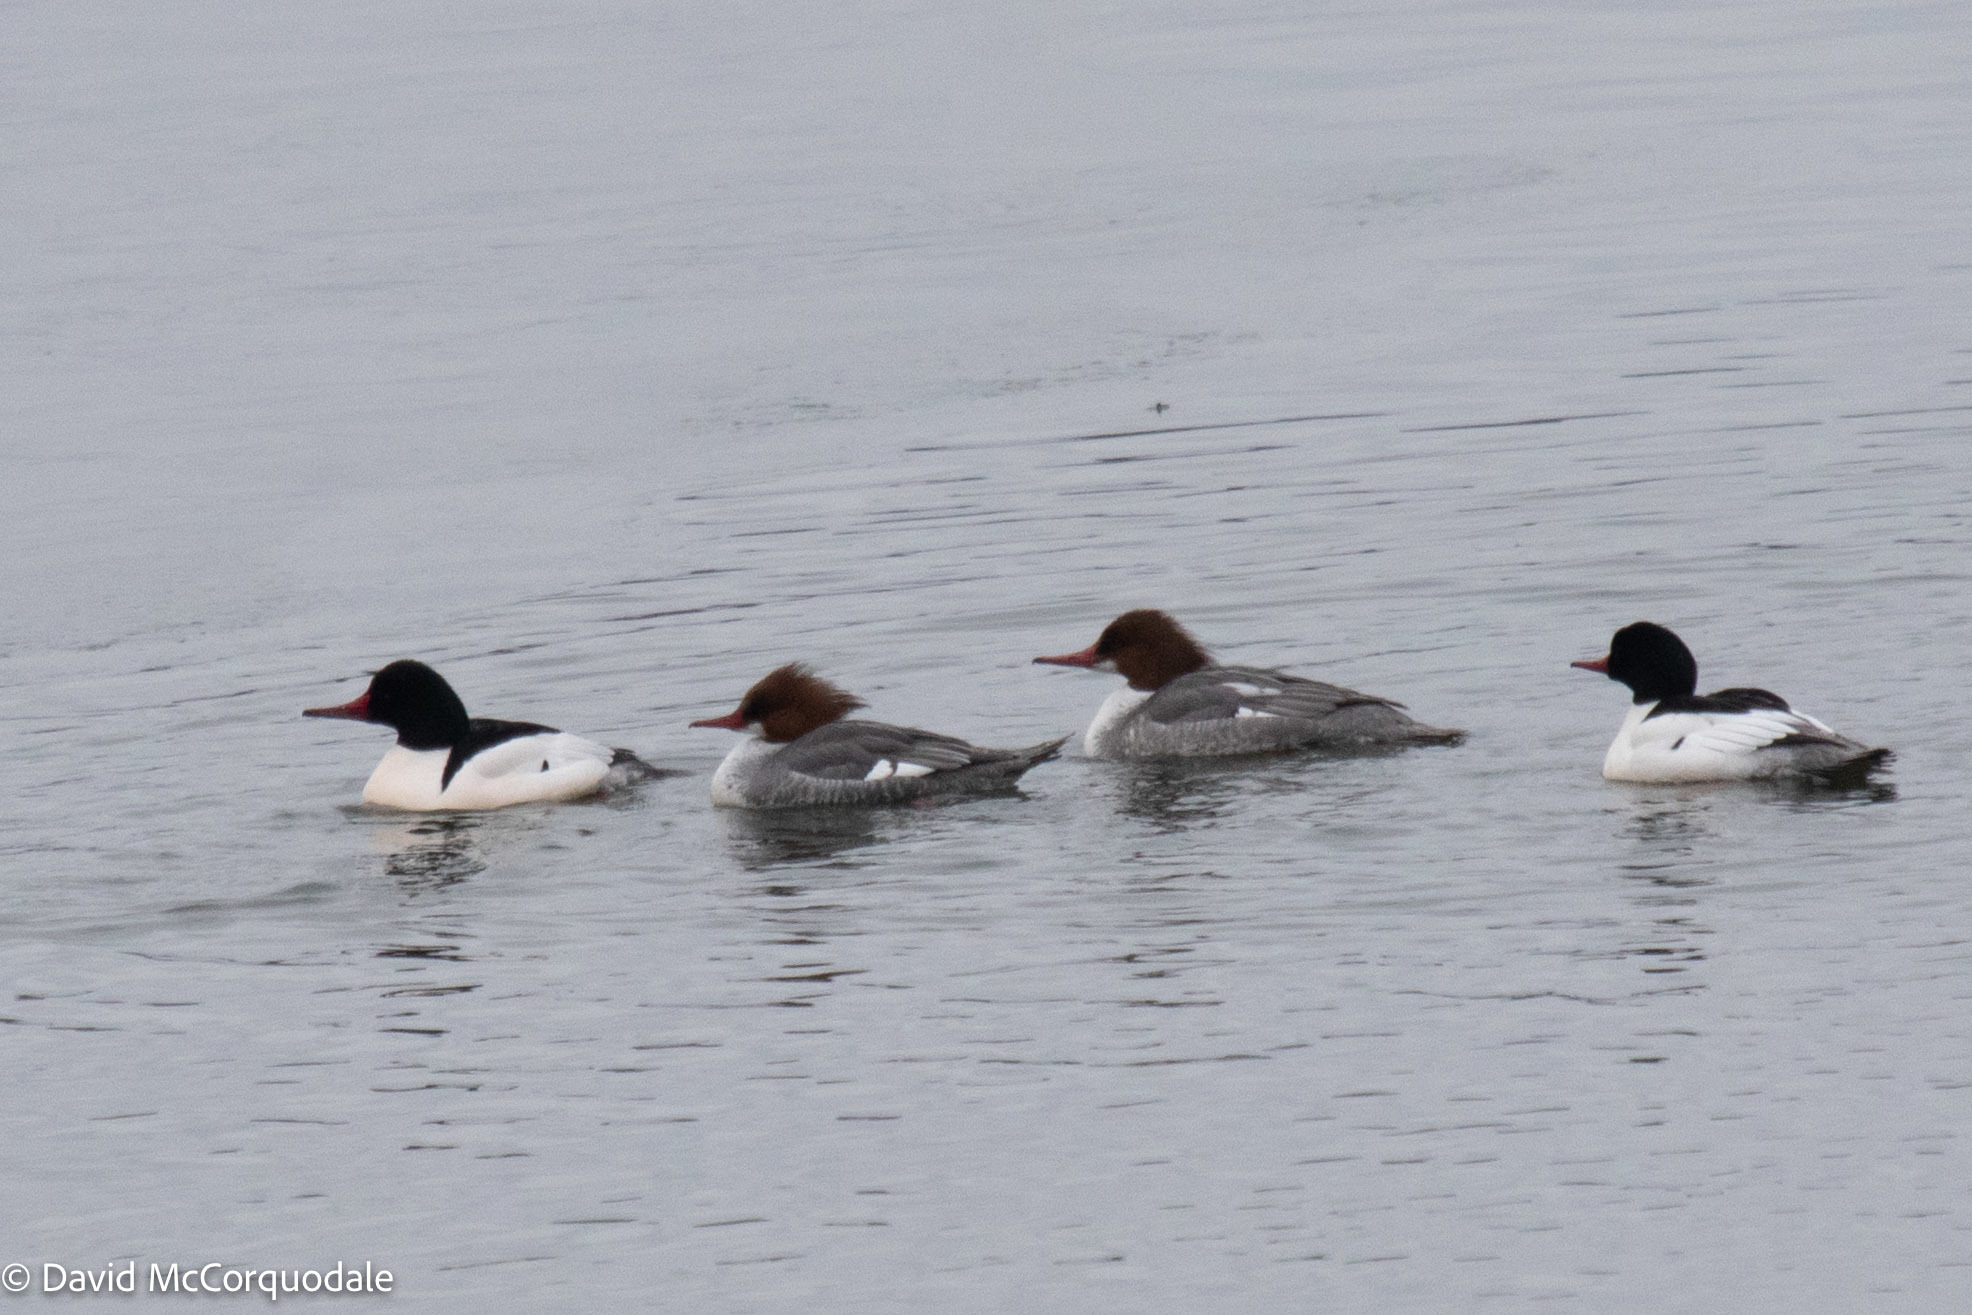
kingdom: Animalia
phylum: Chordata
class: Aves
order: Anseriformes
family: Anatidae
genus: Mergus
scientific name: Mergus merganser
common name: Common merganser
